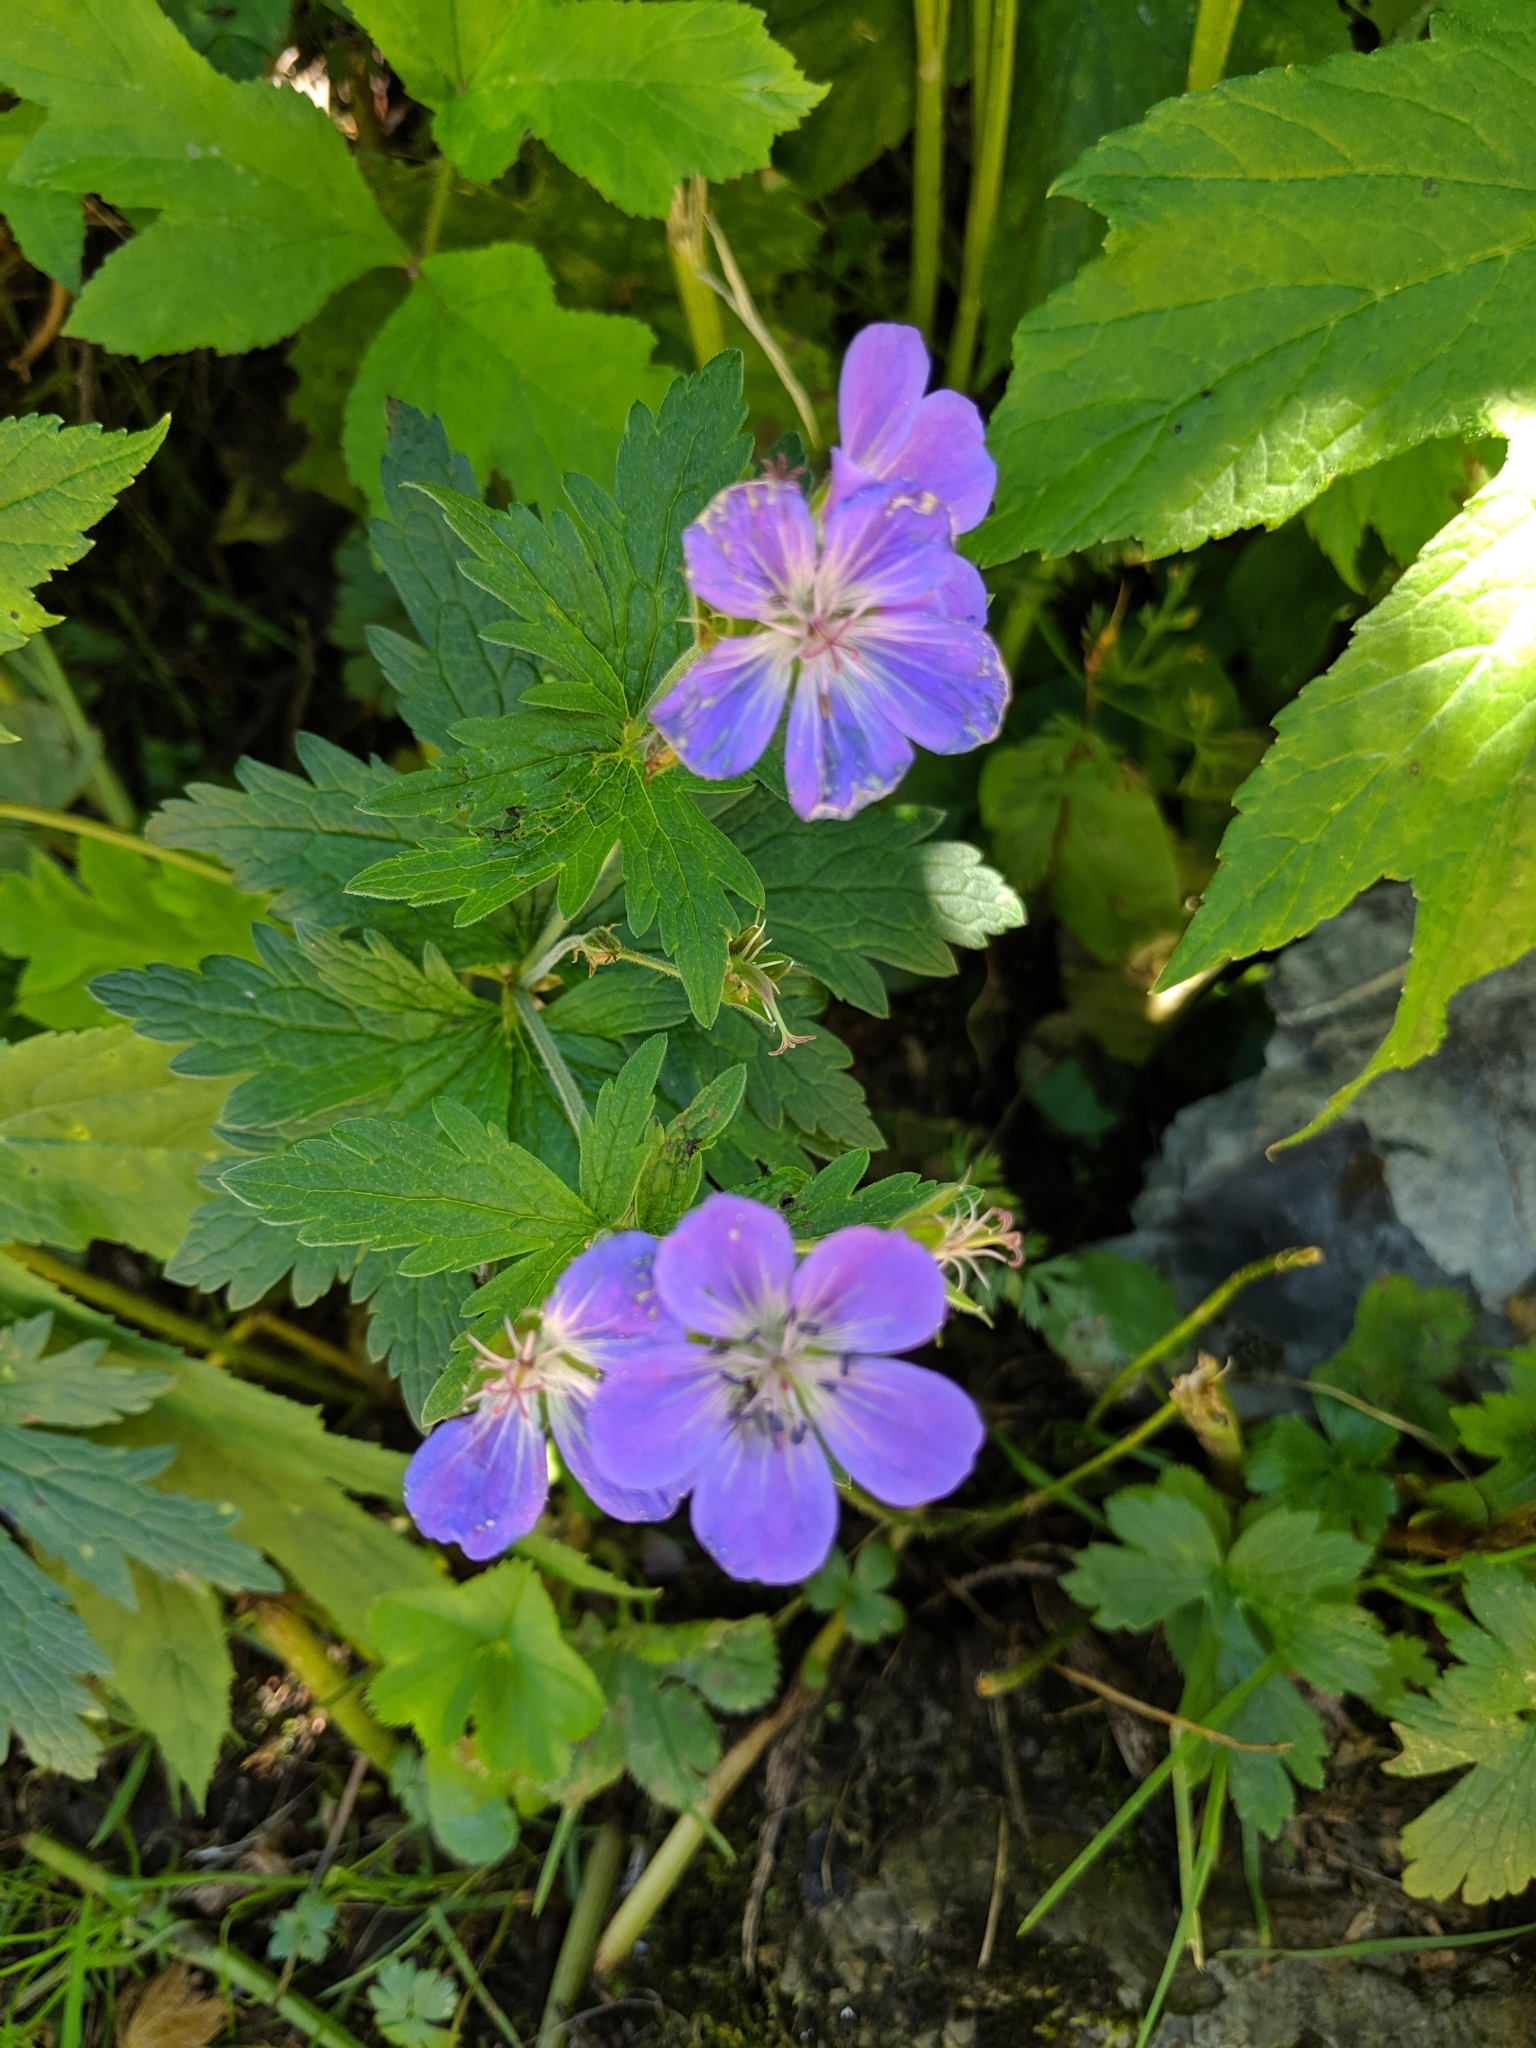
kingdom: Plantae
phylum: Tracheophyta
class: Magnoliopsida
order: Geraniales
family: Geraniaceae
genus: Geranium
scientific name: Geranium sylvaticum
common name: Wood crane's-bill
